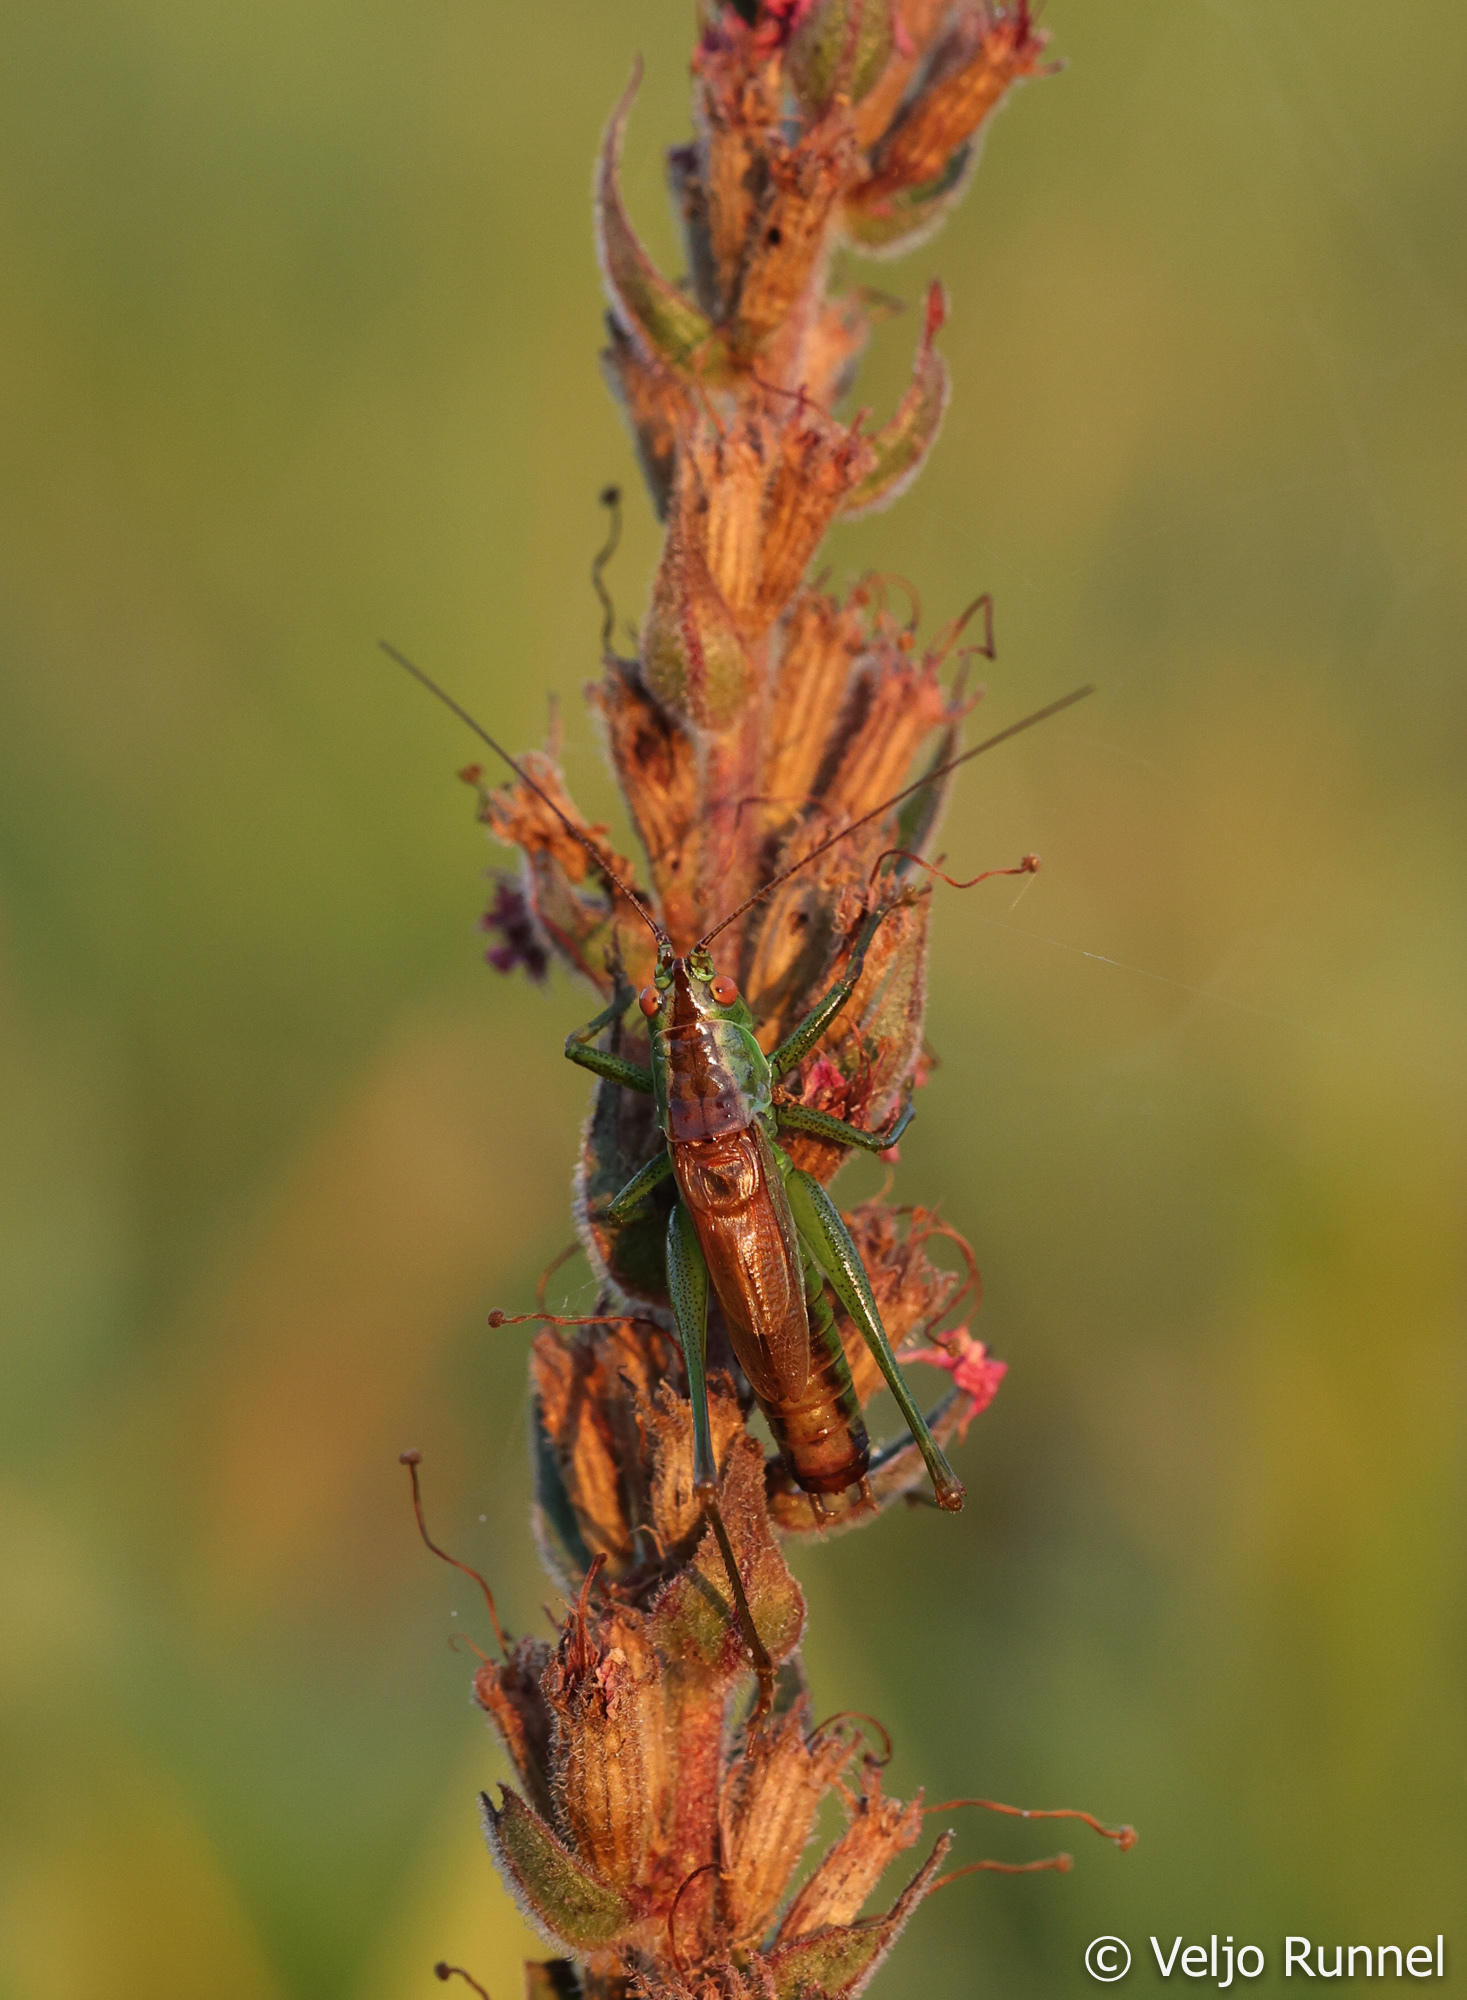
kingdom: Animalia
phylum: Arthropoda
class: Insecta
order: Orthoptera
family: Tettigoniidae
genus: Conocephalus
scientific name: Conocephalus dorsalis
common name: Short-winged conehead
